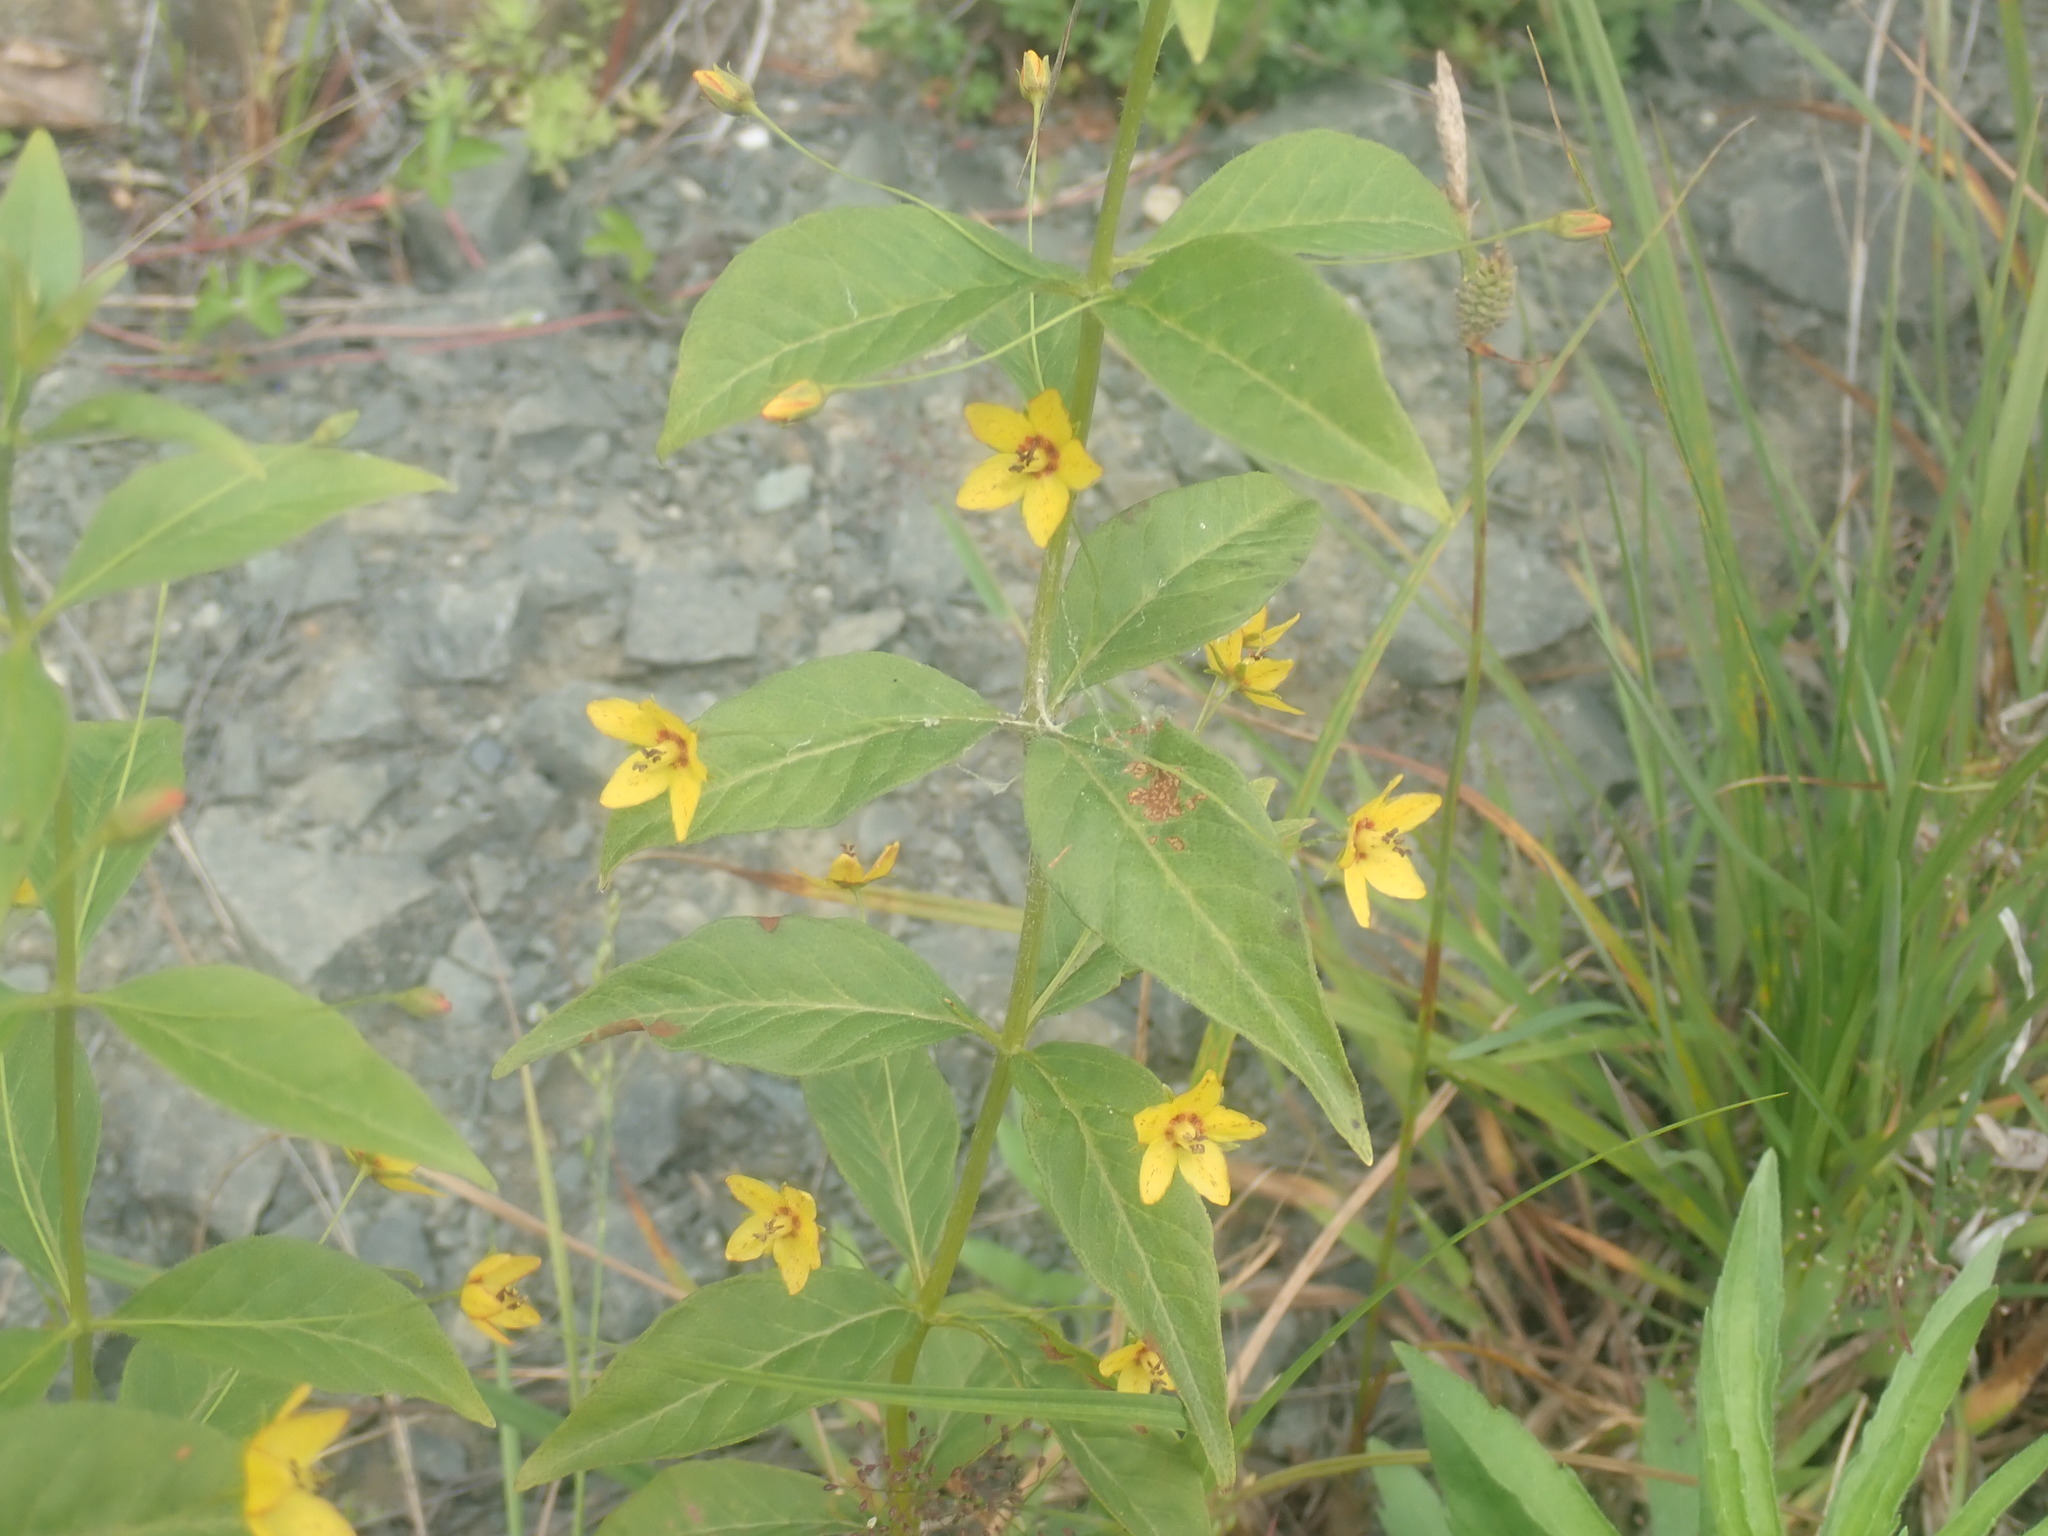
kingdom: Plantae
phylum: Tracheophyta
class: Magnoliopsida
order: Ericales
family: Primulaceae
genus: Lysimachia
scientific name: Lysimachia quadrifolia
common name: Whorled loosestrife
